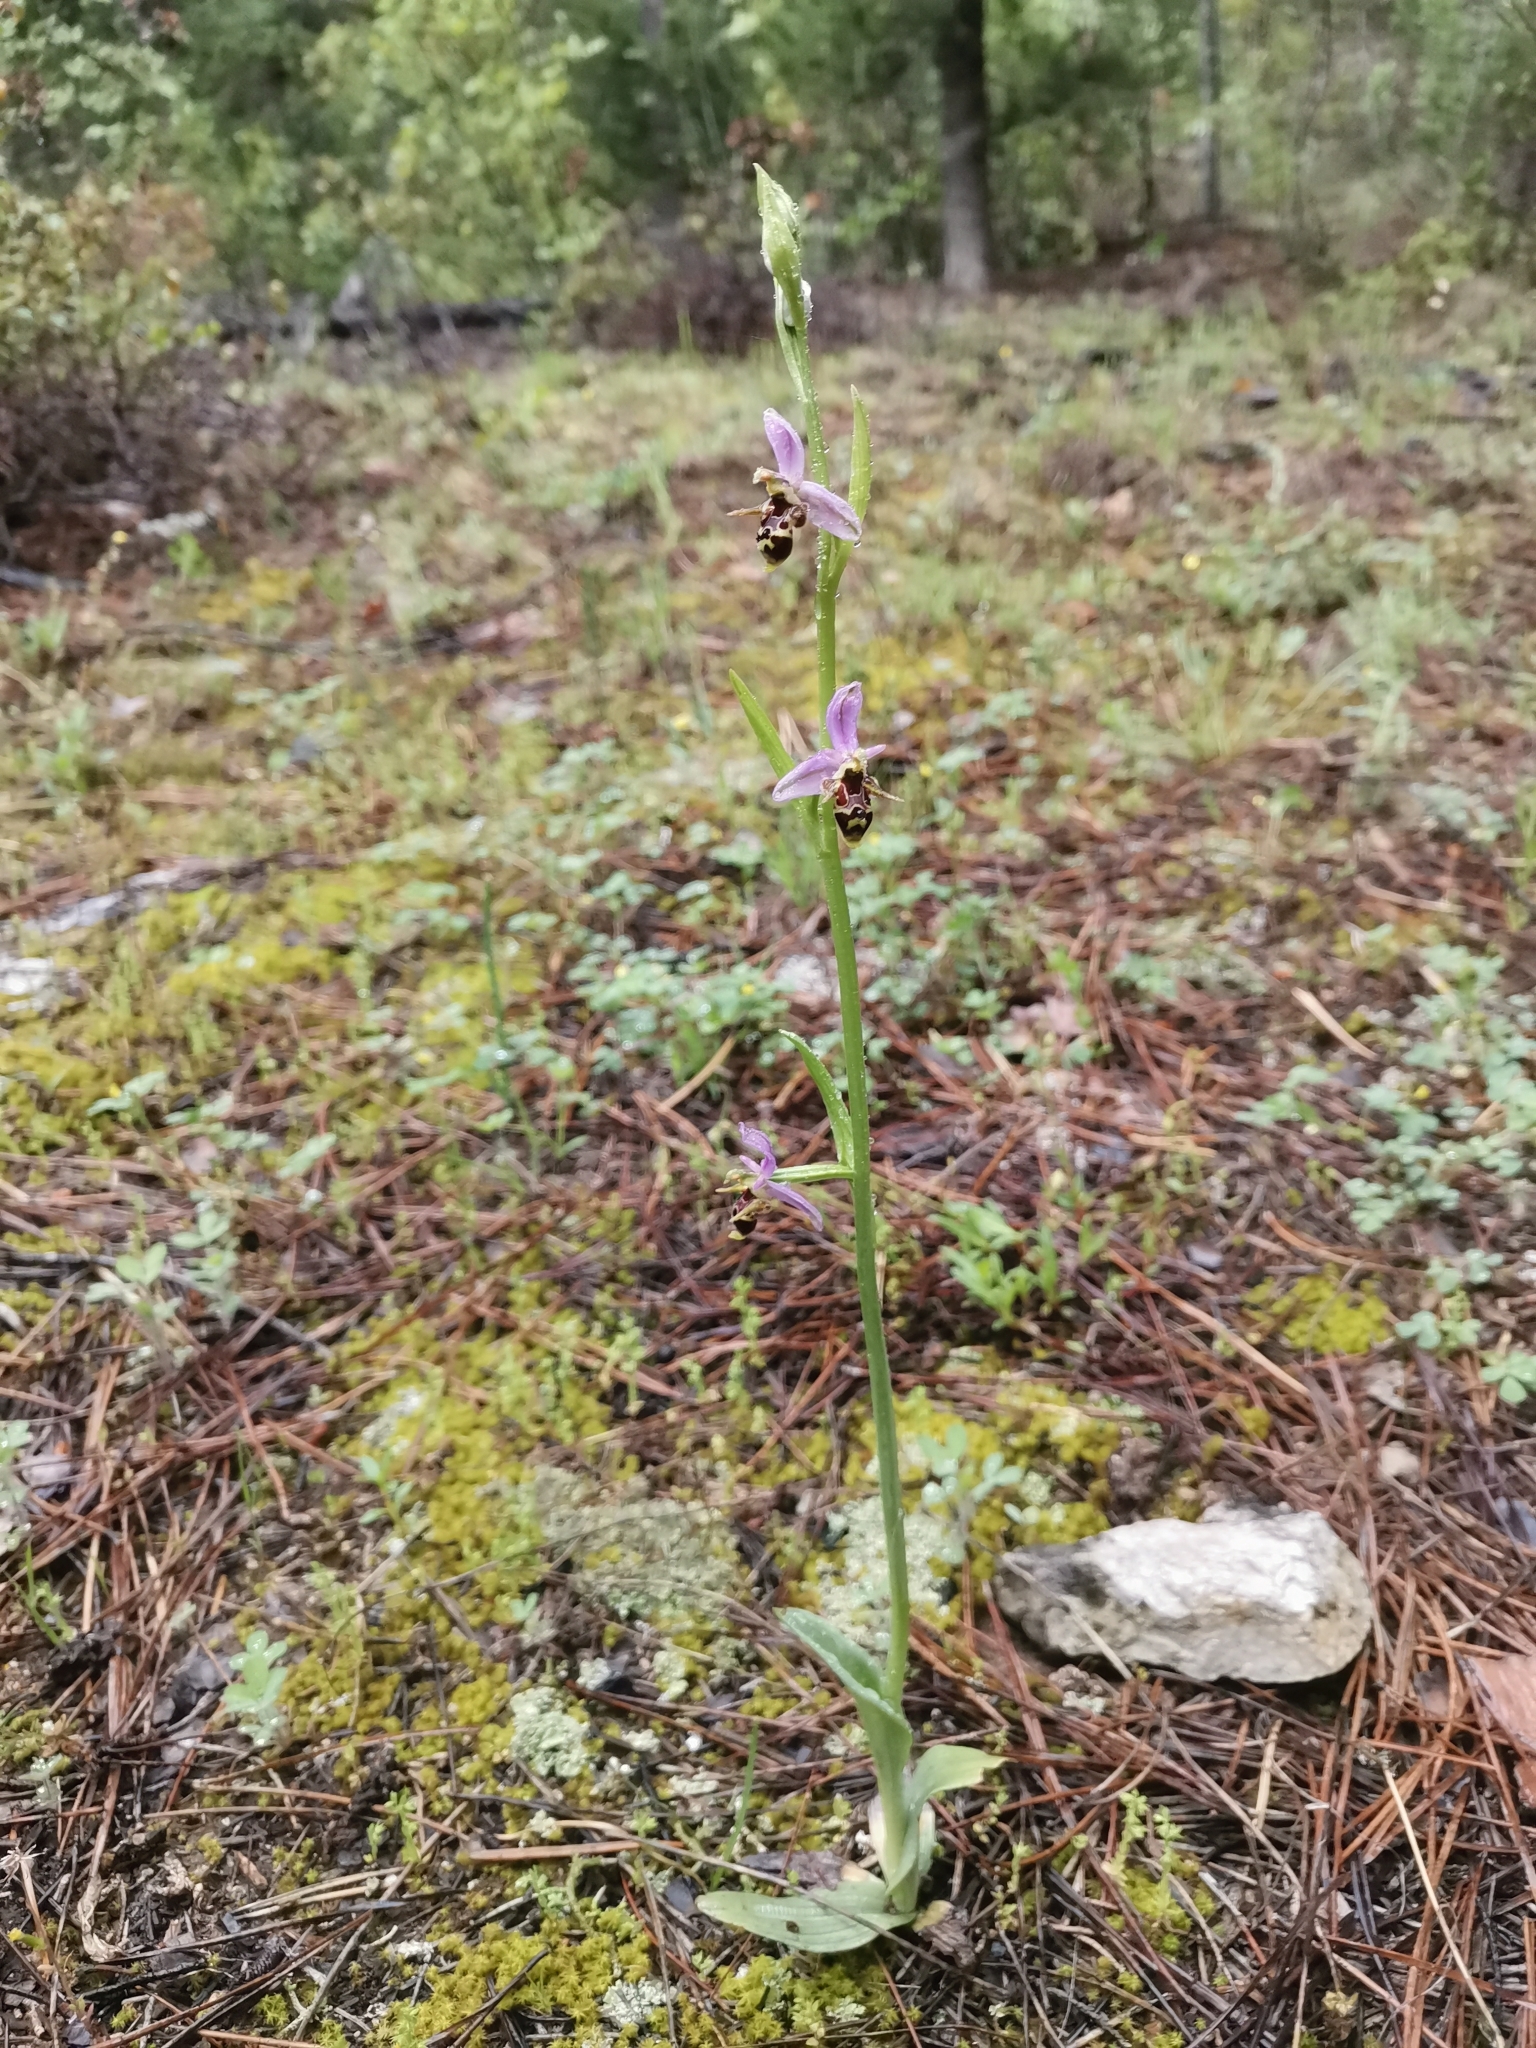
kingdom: Plantae
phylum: Tracheophyta
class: Liliopsida
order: Asparagales
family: Orchidaceae
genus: Ophrys
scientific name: Ophrys scolopax
